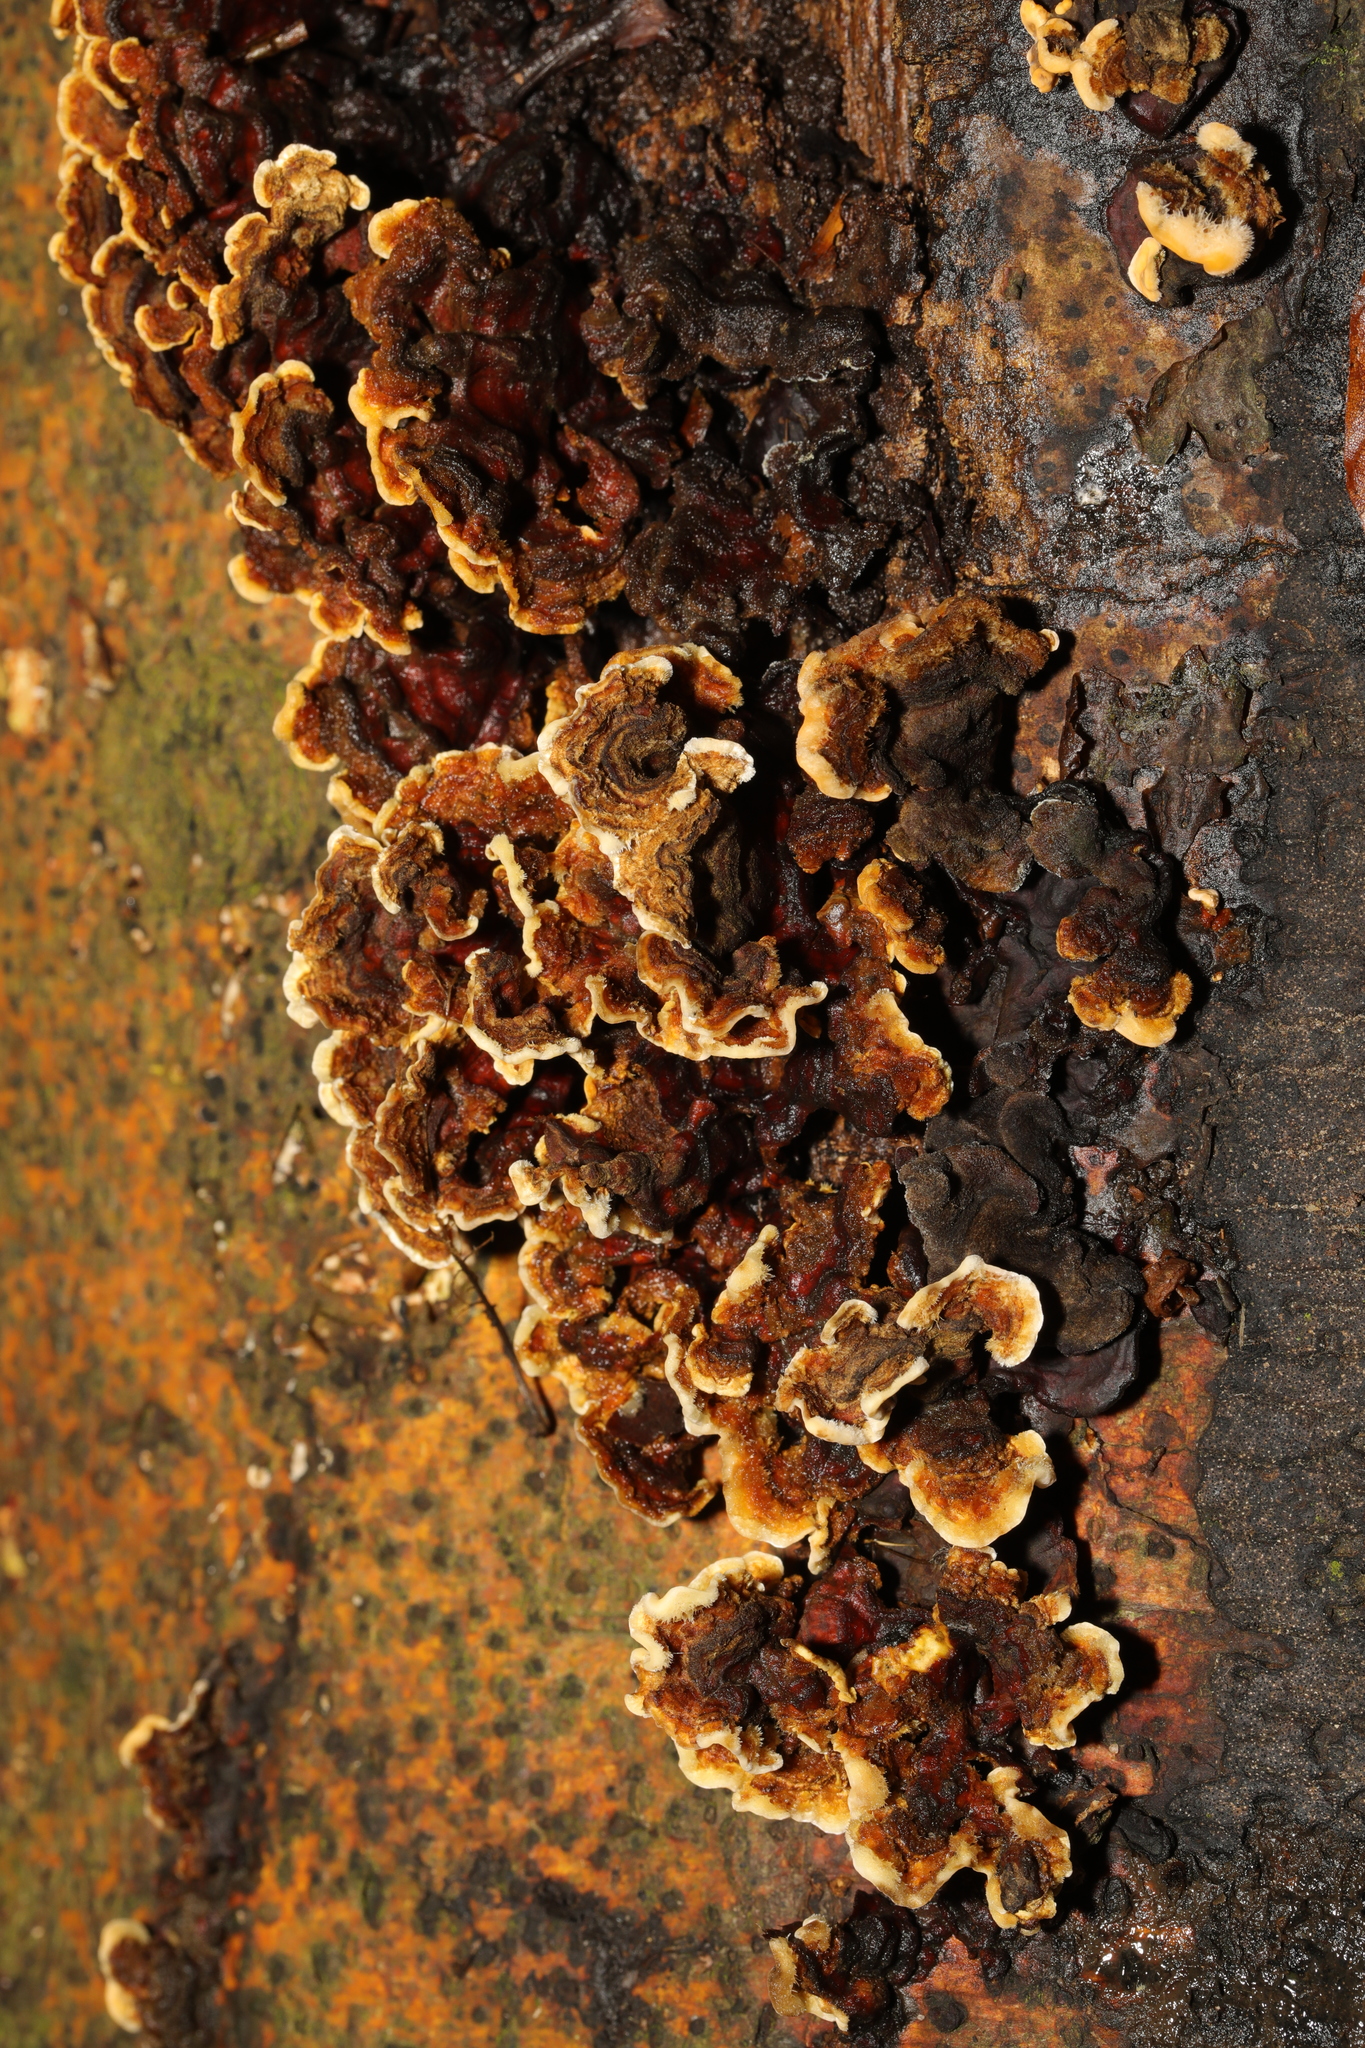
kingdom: Fungi
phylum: Basidiomycota
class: Agaricomycetes
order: Russulales
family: Stereaceae
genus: Stereum
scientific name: Stereum hirsutum
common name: Hairy curtain crust
